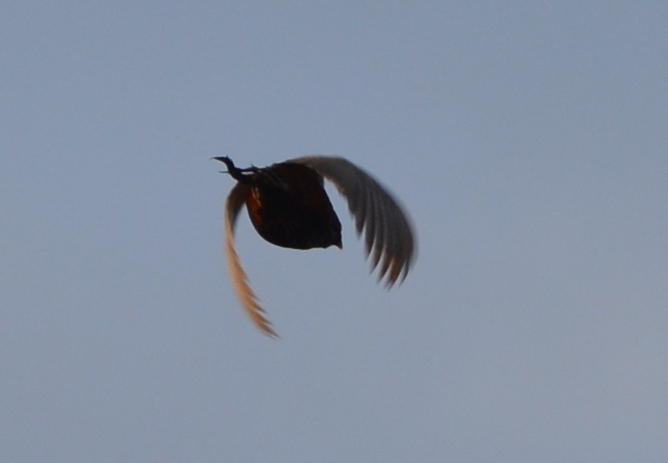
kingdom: Animalia
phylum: Chordata
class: Aves
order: Galliformes
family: Phasianidae
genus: Phasianus
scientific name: Phasianus colchicus
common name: Common pheasant
